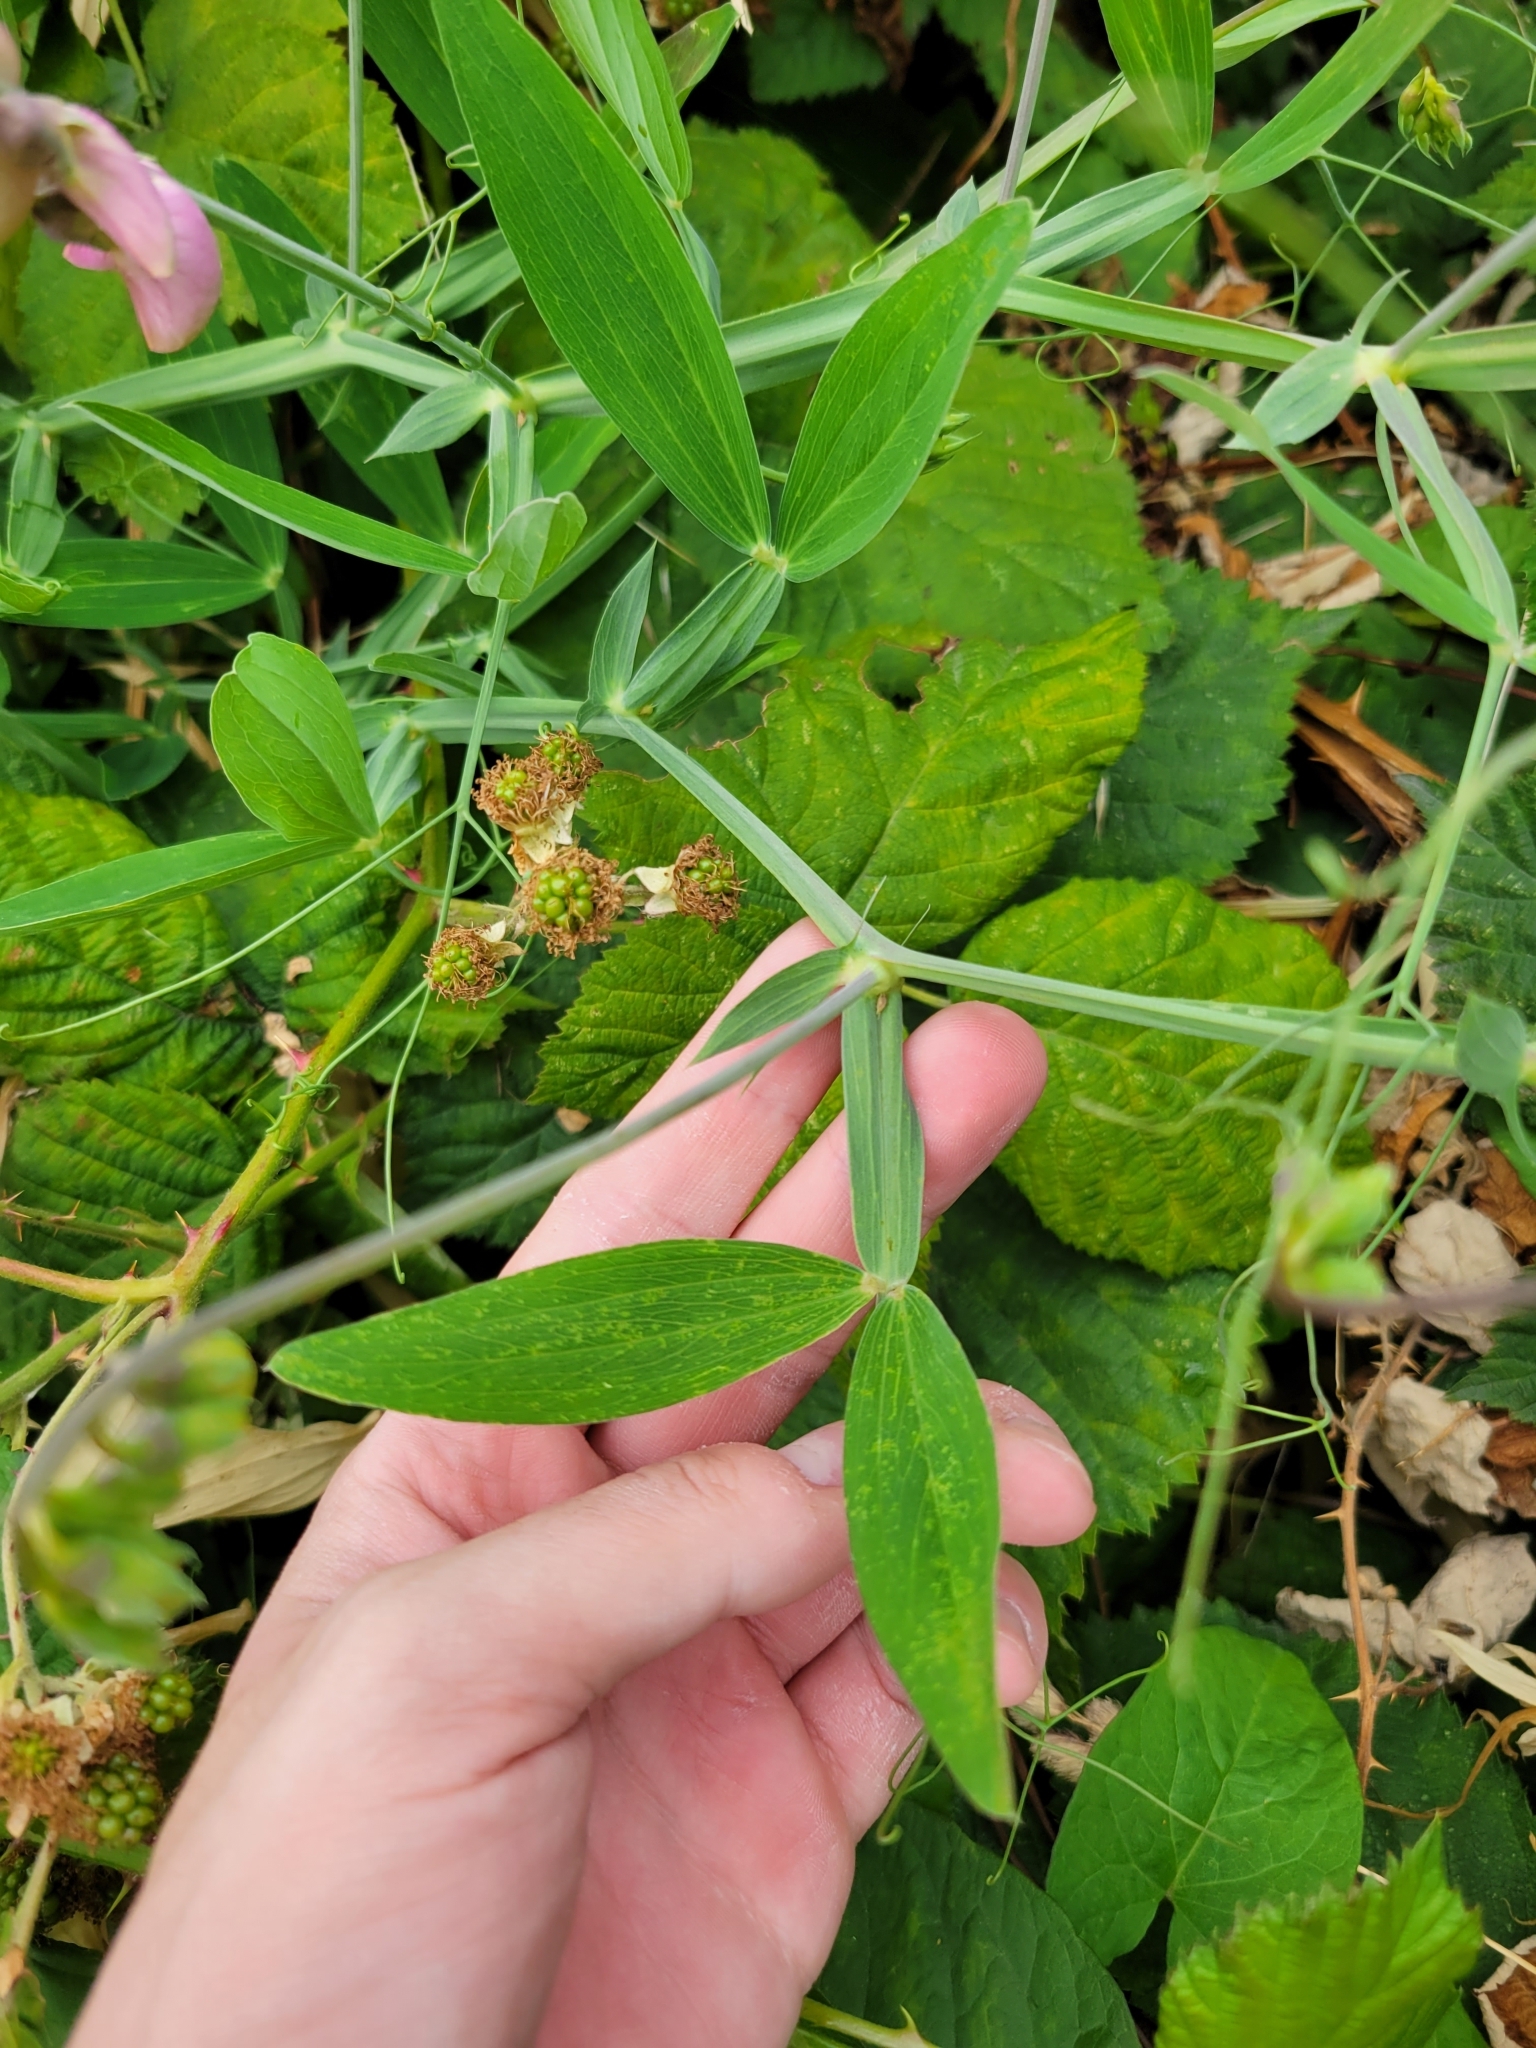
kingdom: Plantae
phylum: Tracheophyta
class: Magnoliopsida
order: Fabales
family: Fabaceae
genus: Lathyrus
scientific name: Lathyrus latifolius
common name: Perennial pea
